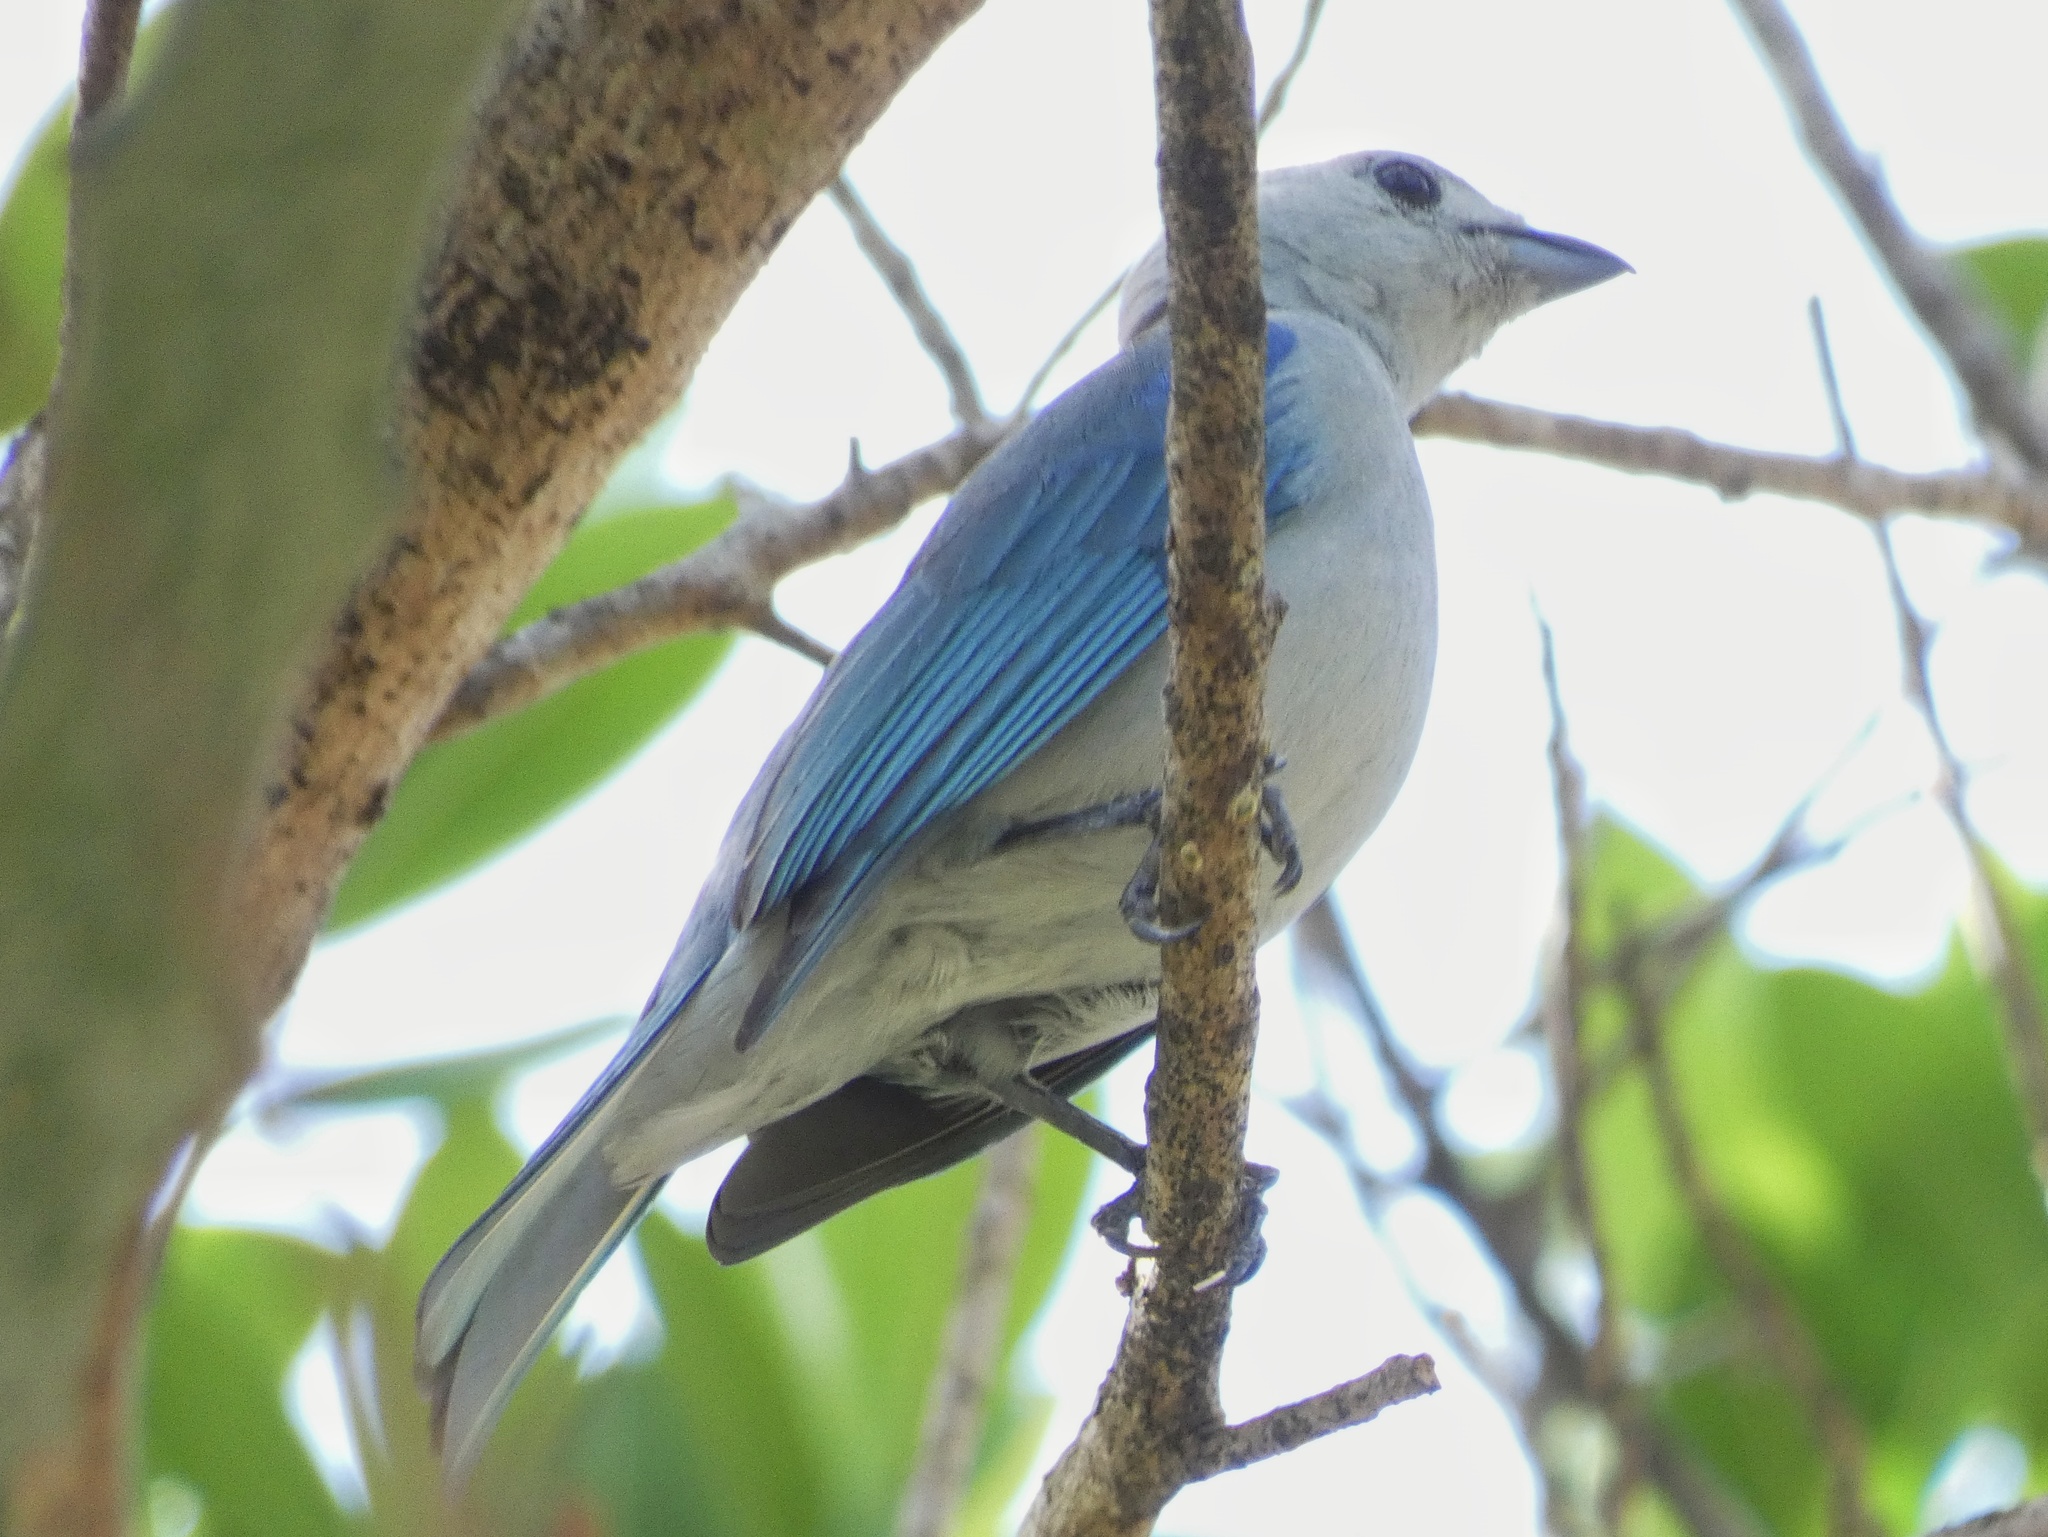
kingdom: Animalia
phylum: Chordata
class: Aves
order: Passeriformes
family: Thraupidae
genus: Thraupis
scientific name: Thraupis episcopus
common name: Blue-grey tanager
